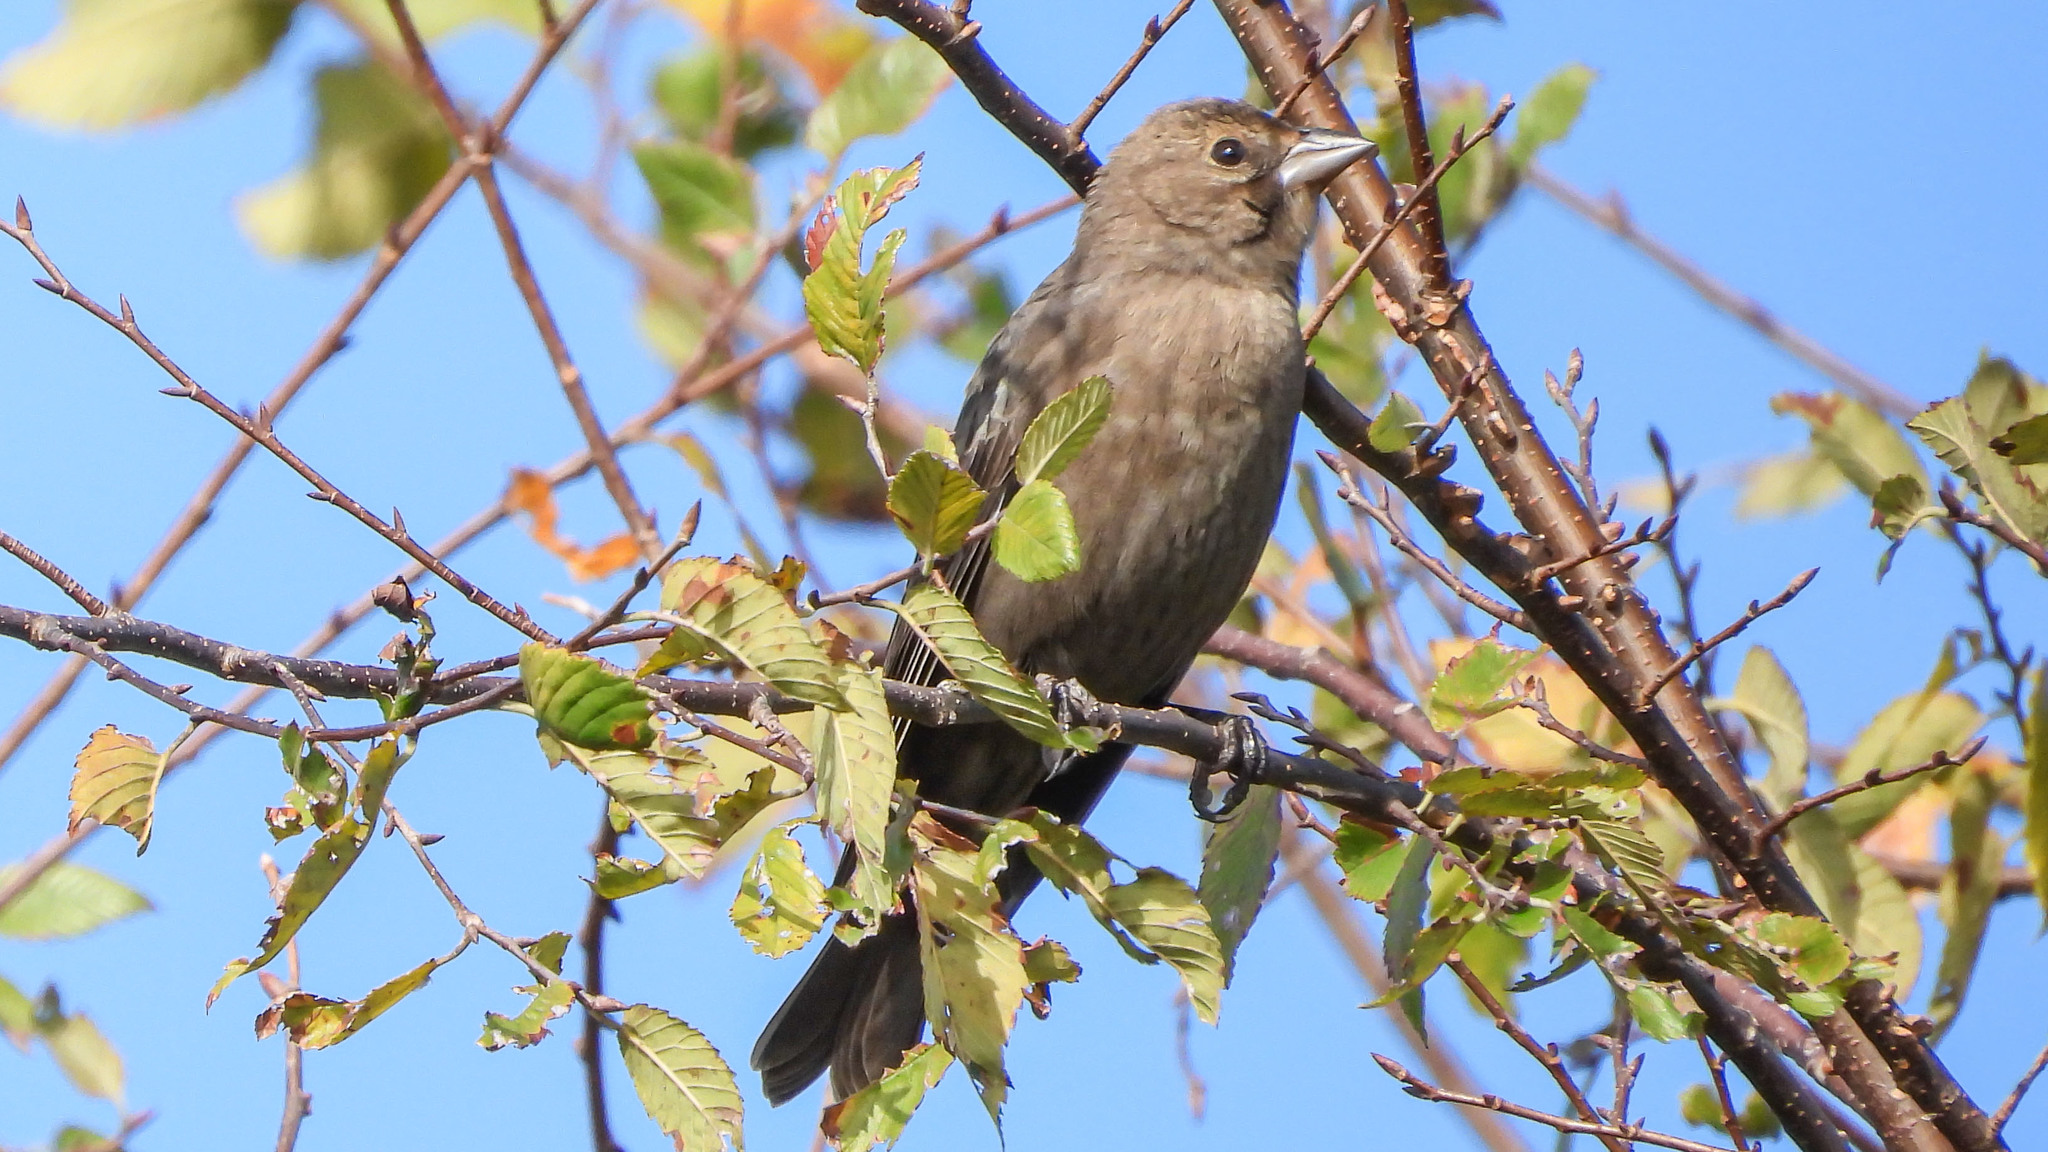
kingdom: Animalia
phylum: Chordata
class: Aves
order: Passeriformes
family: Icteridae
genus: Molothrus
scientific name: Molothrus ater
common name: Brown-headed cowbird
